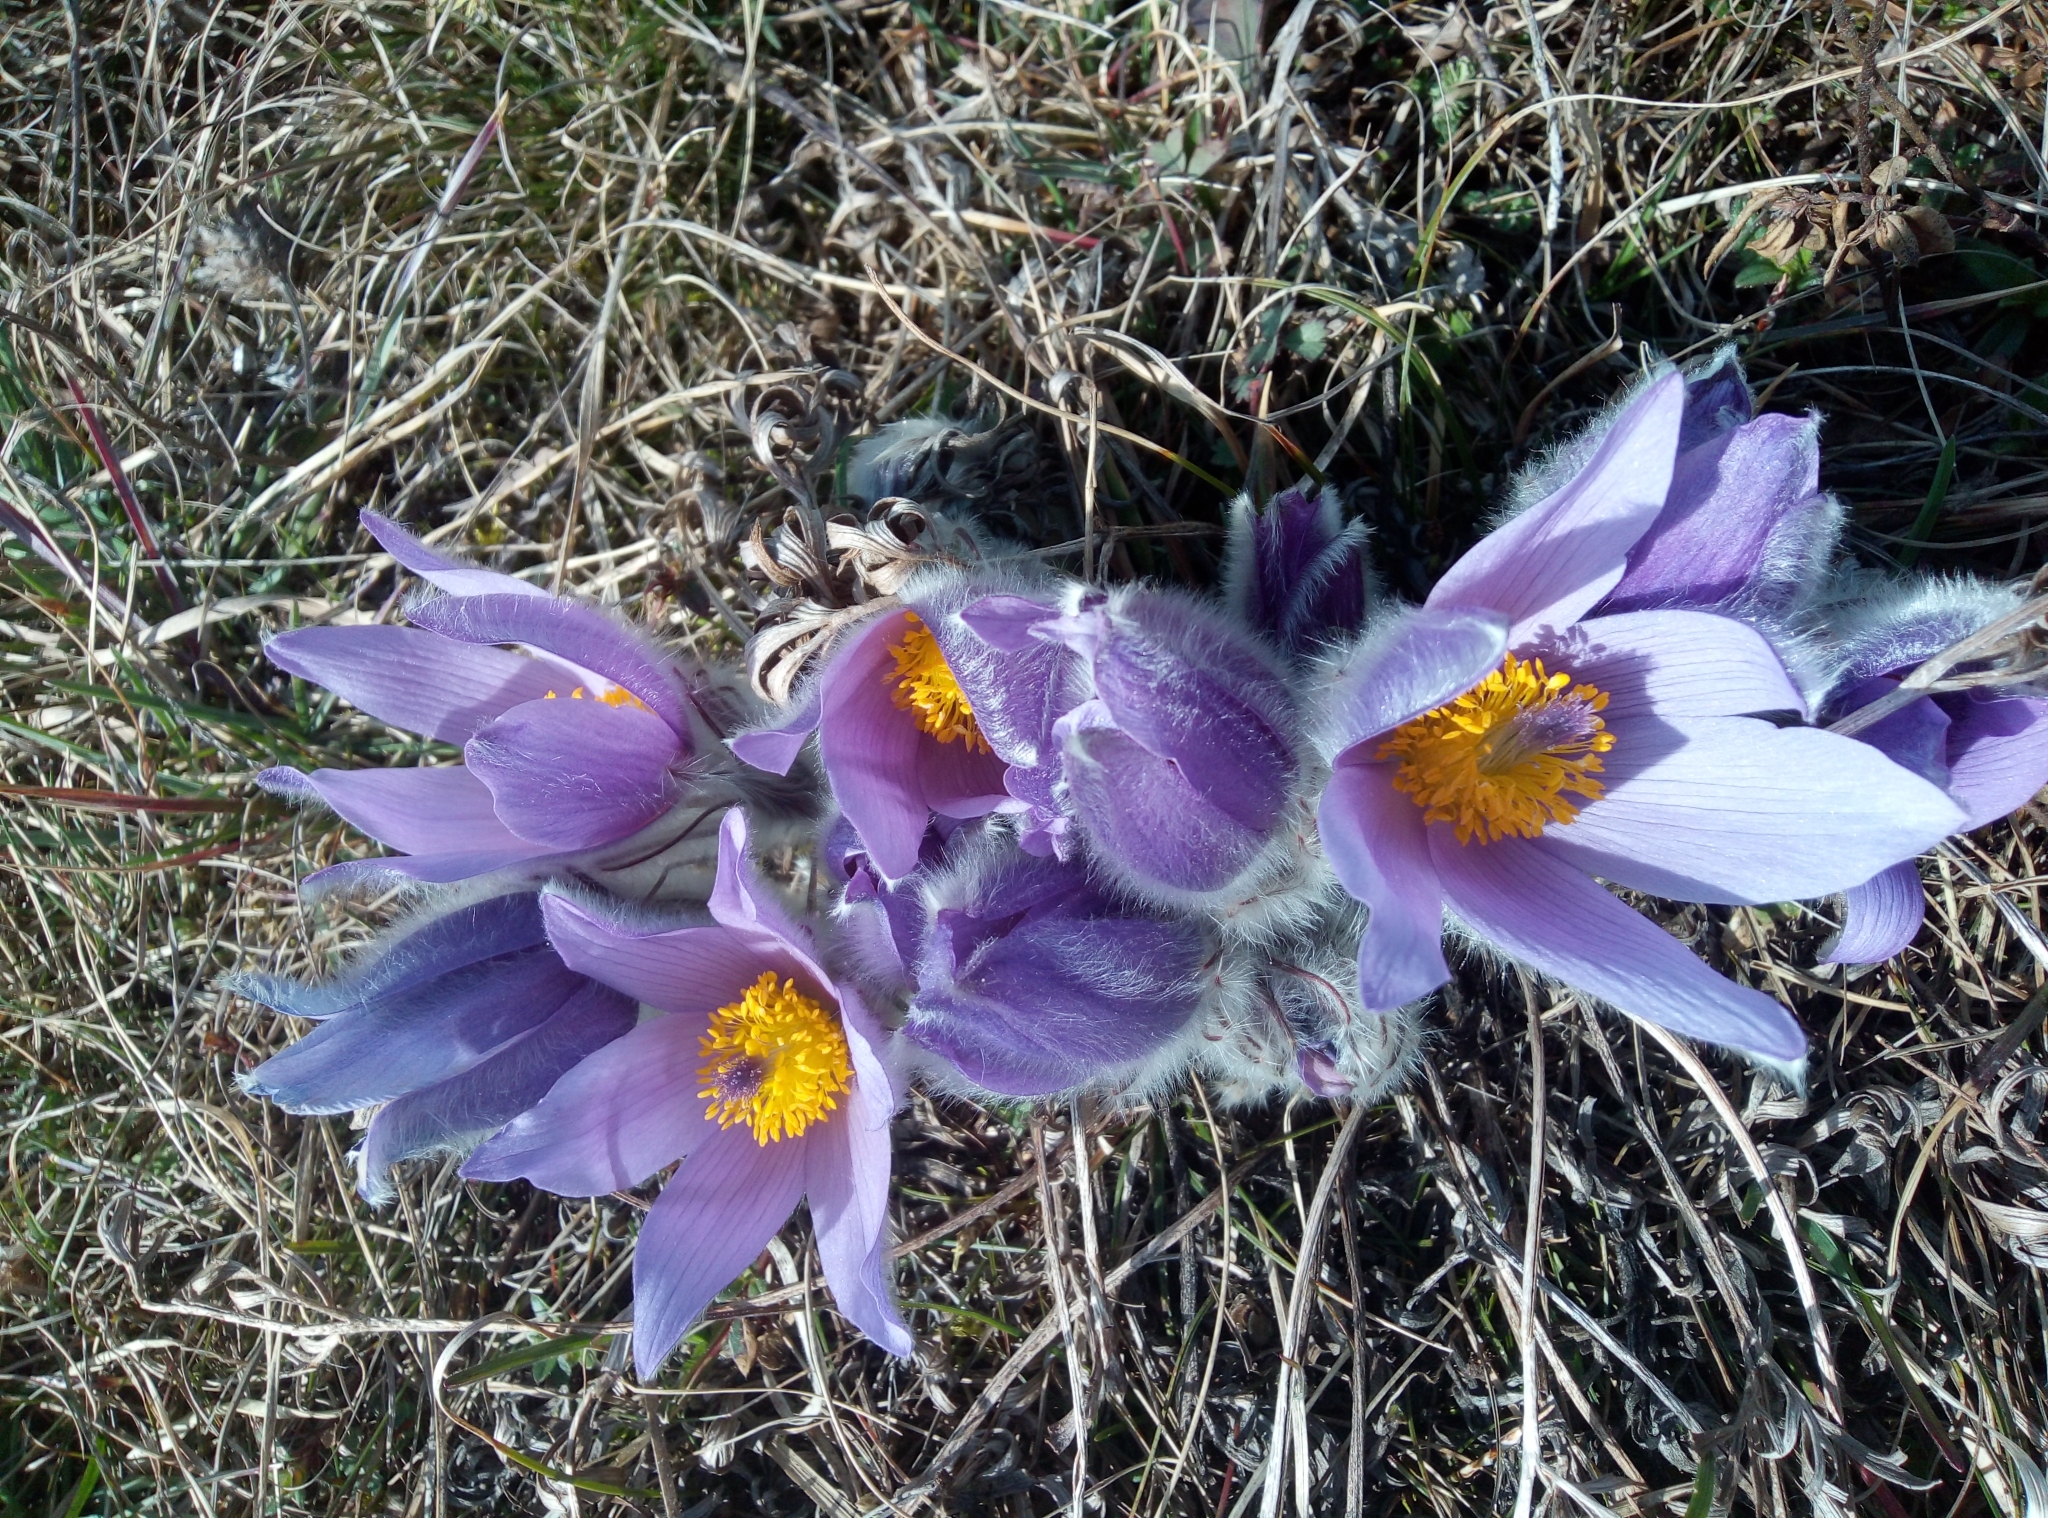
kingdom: Plantae
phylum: Tracheophyta
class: Magnoliopsida
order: Ranunculales
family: Ranunculaceae
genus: Pulsatilla
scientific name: Pulsatilla grandis
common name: Greater pasque flower
